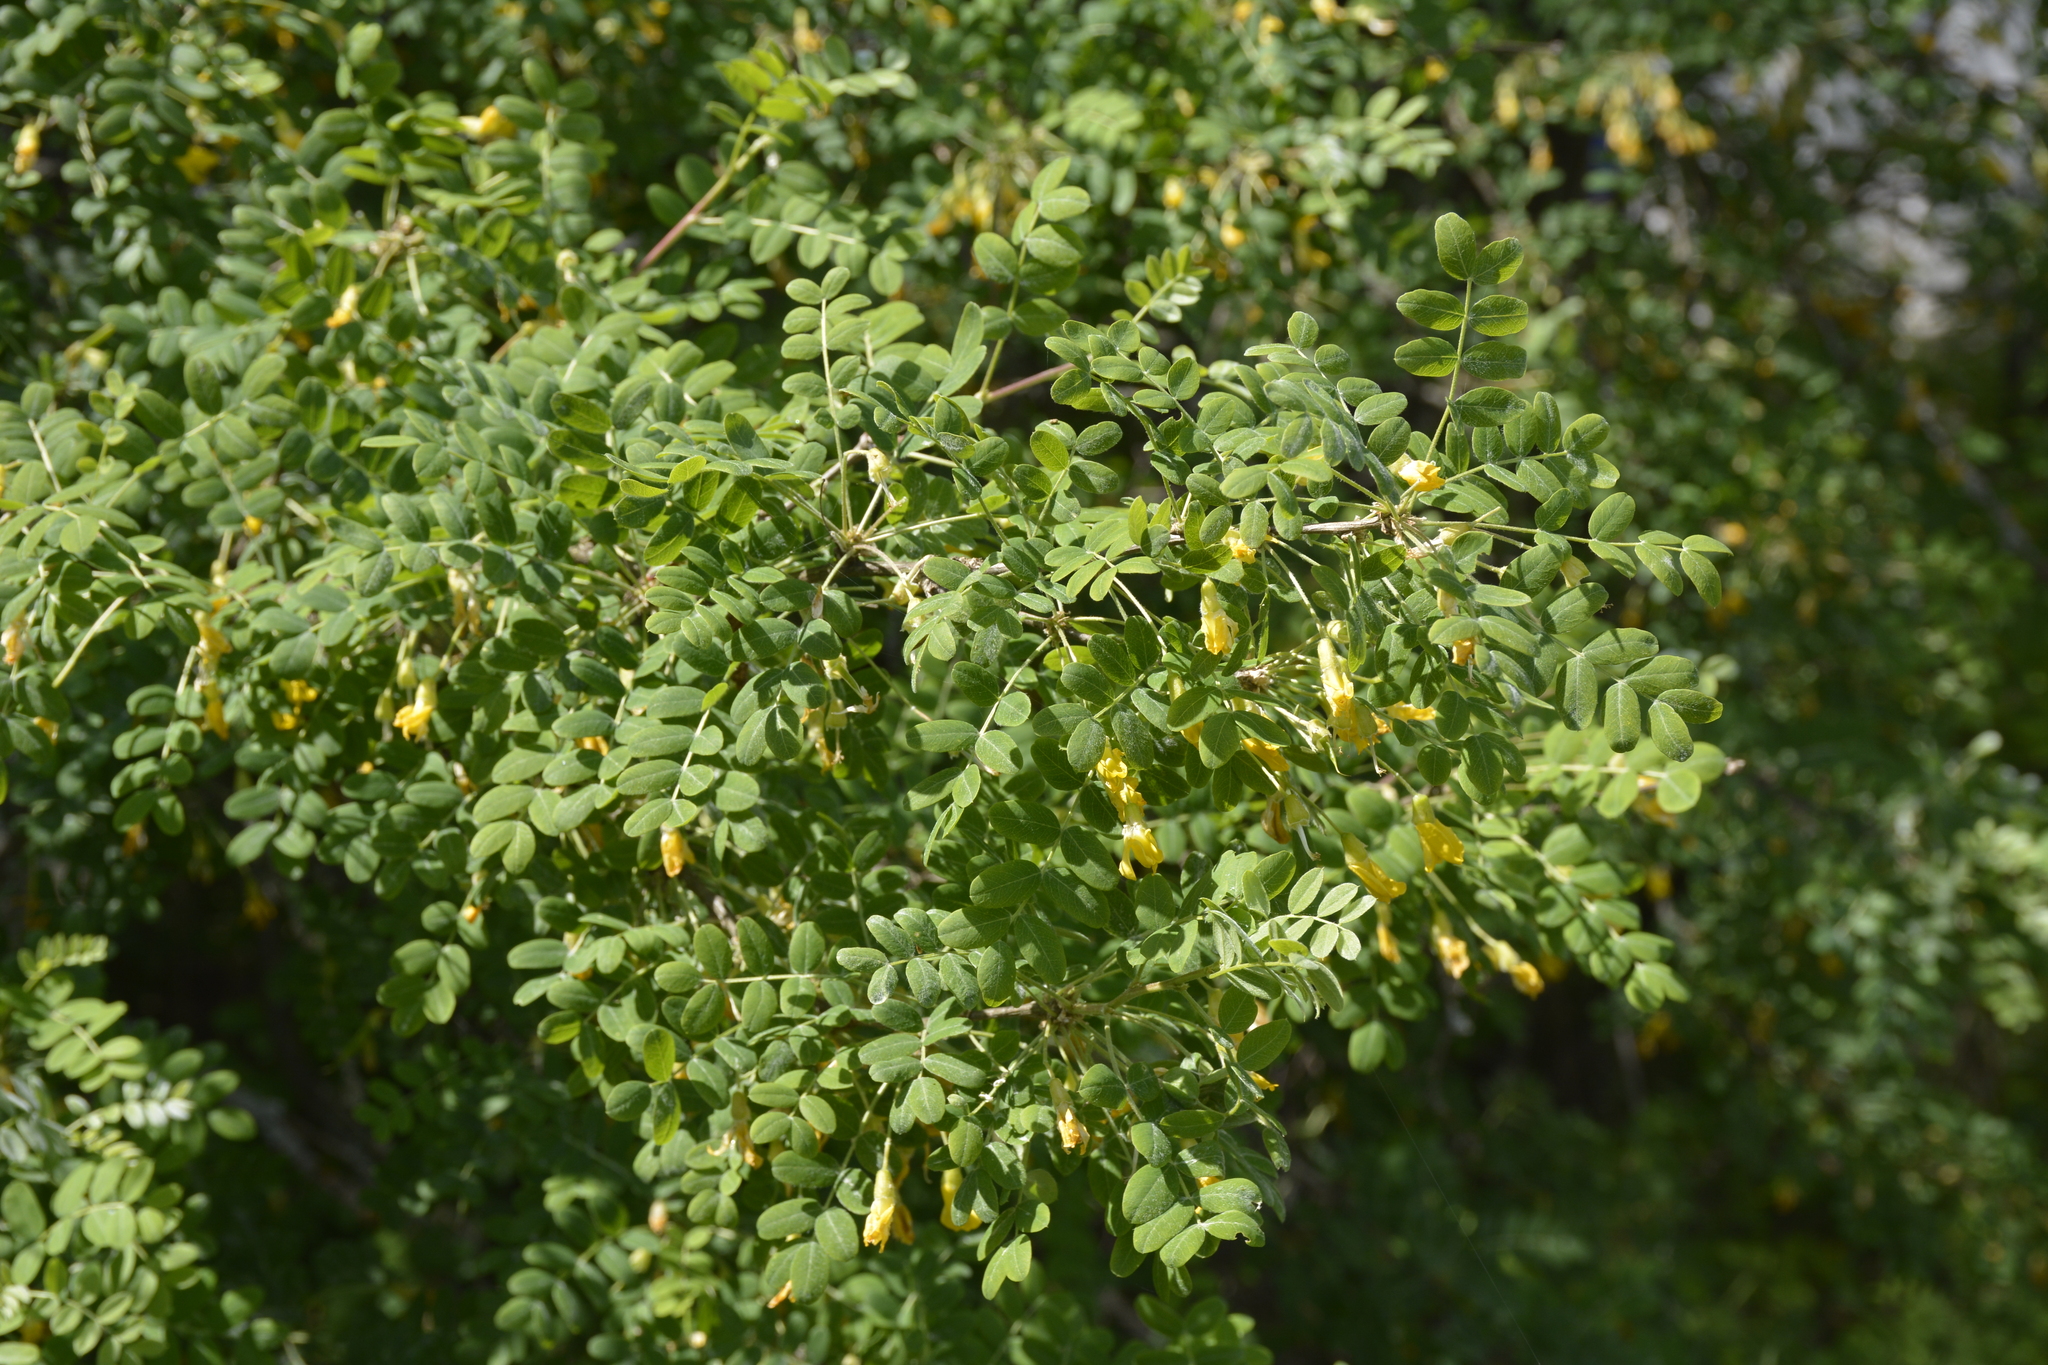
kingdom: Plantae
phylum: Tracheophyta
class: Magnoliopsida
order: Fabales
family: Fabaceae
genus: Caragana
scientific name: Caragana arborescens
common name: Siberian peashrub
